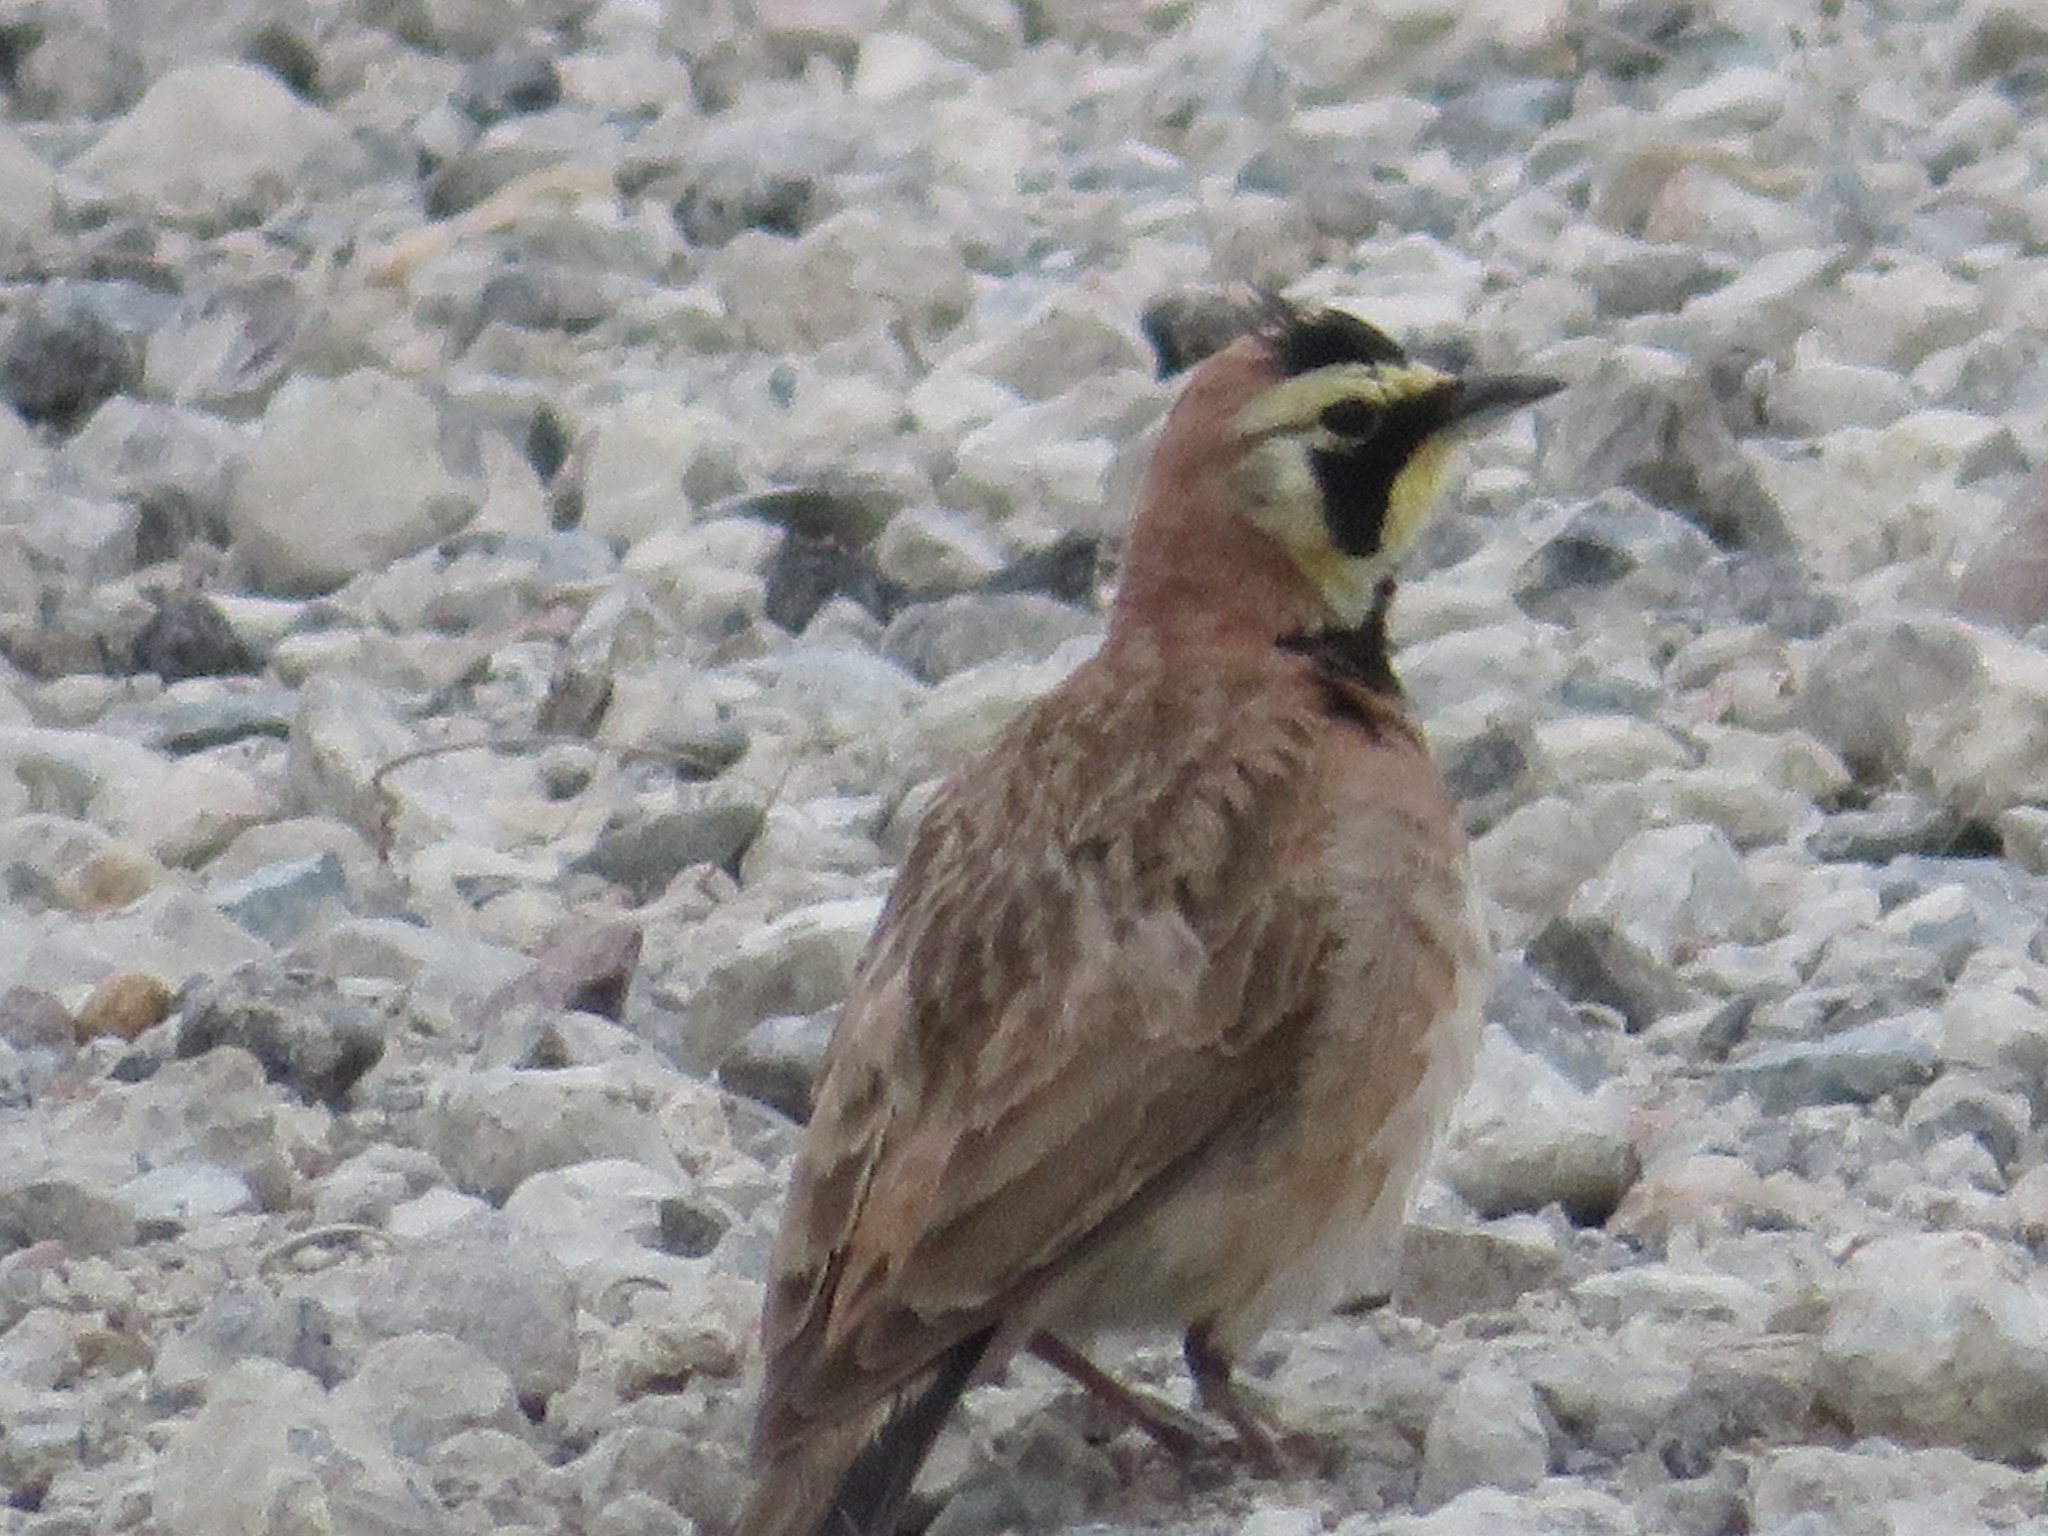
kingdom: Animalia
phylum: Chordata
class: Aves
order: Passeriformes
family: Alaudidae
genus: Eremophila
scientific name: Eremophila alpestris
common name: Horned lark
